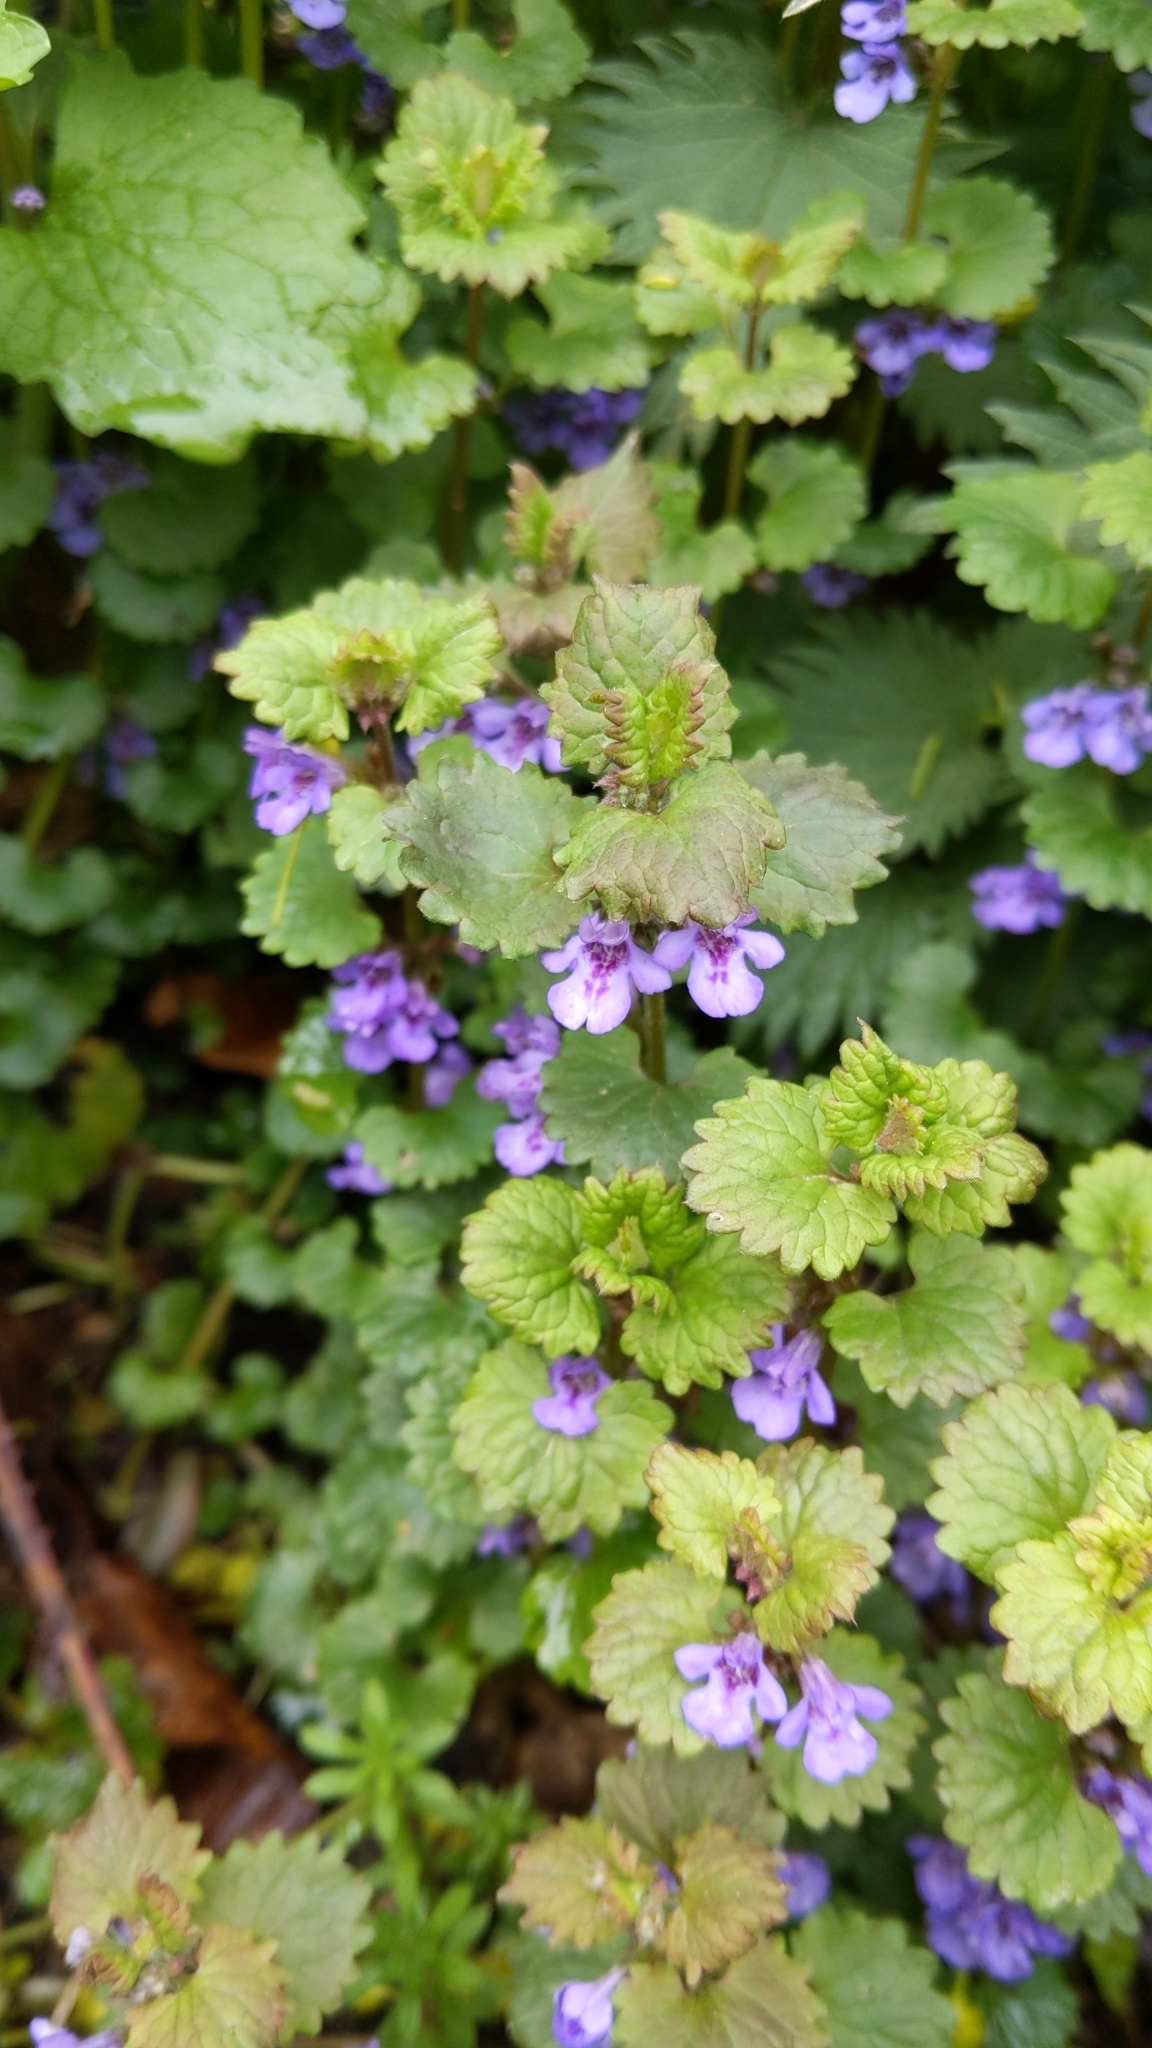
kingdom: Plantae
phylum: Tracheophyta
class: Magnoliopsida
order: Lamiales
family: Lamiaceae
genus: Glechoma
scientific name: Glechoma hederacea
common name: Ground ivy
